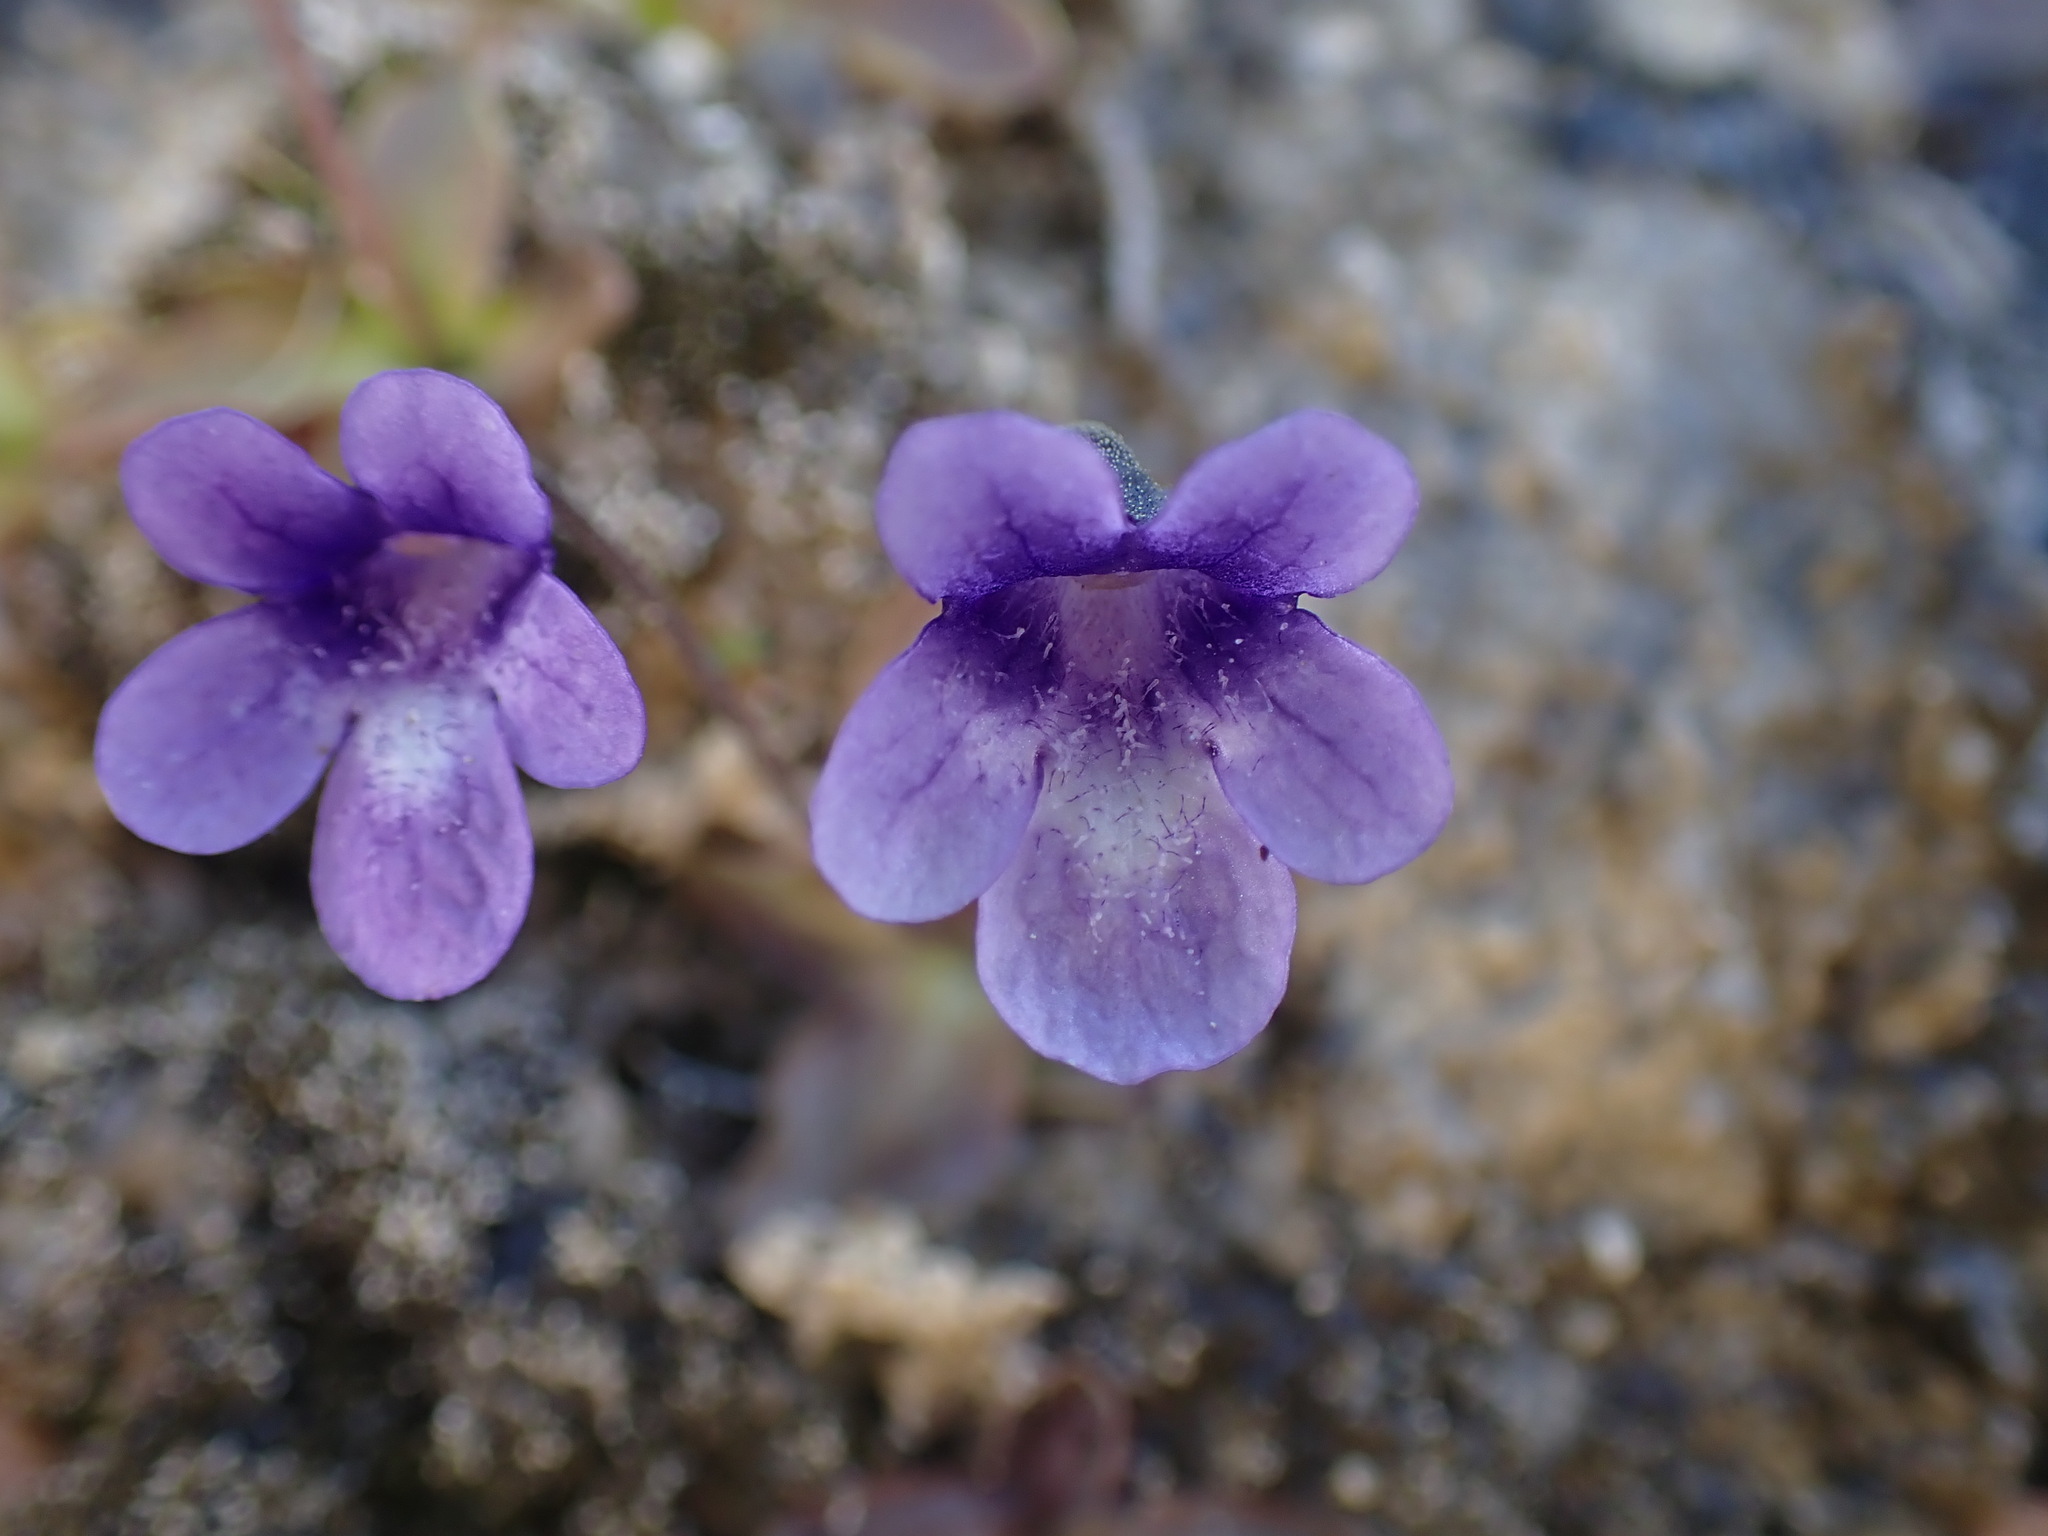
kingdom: Plantae
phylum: Tracheophyta
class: Magnoliopsida
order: Lamiales
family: Lentibulariaceae
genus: Pinguicula
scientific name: Pinguicula macroceras
